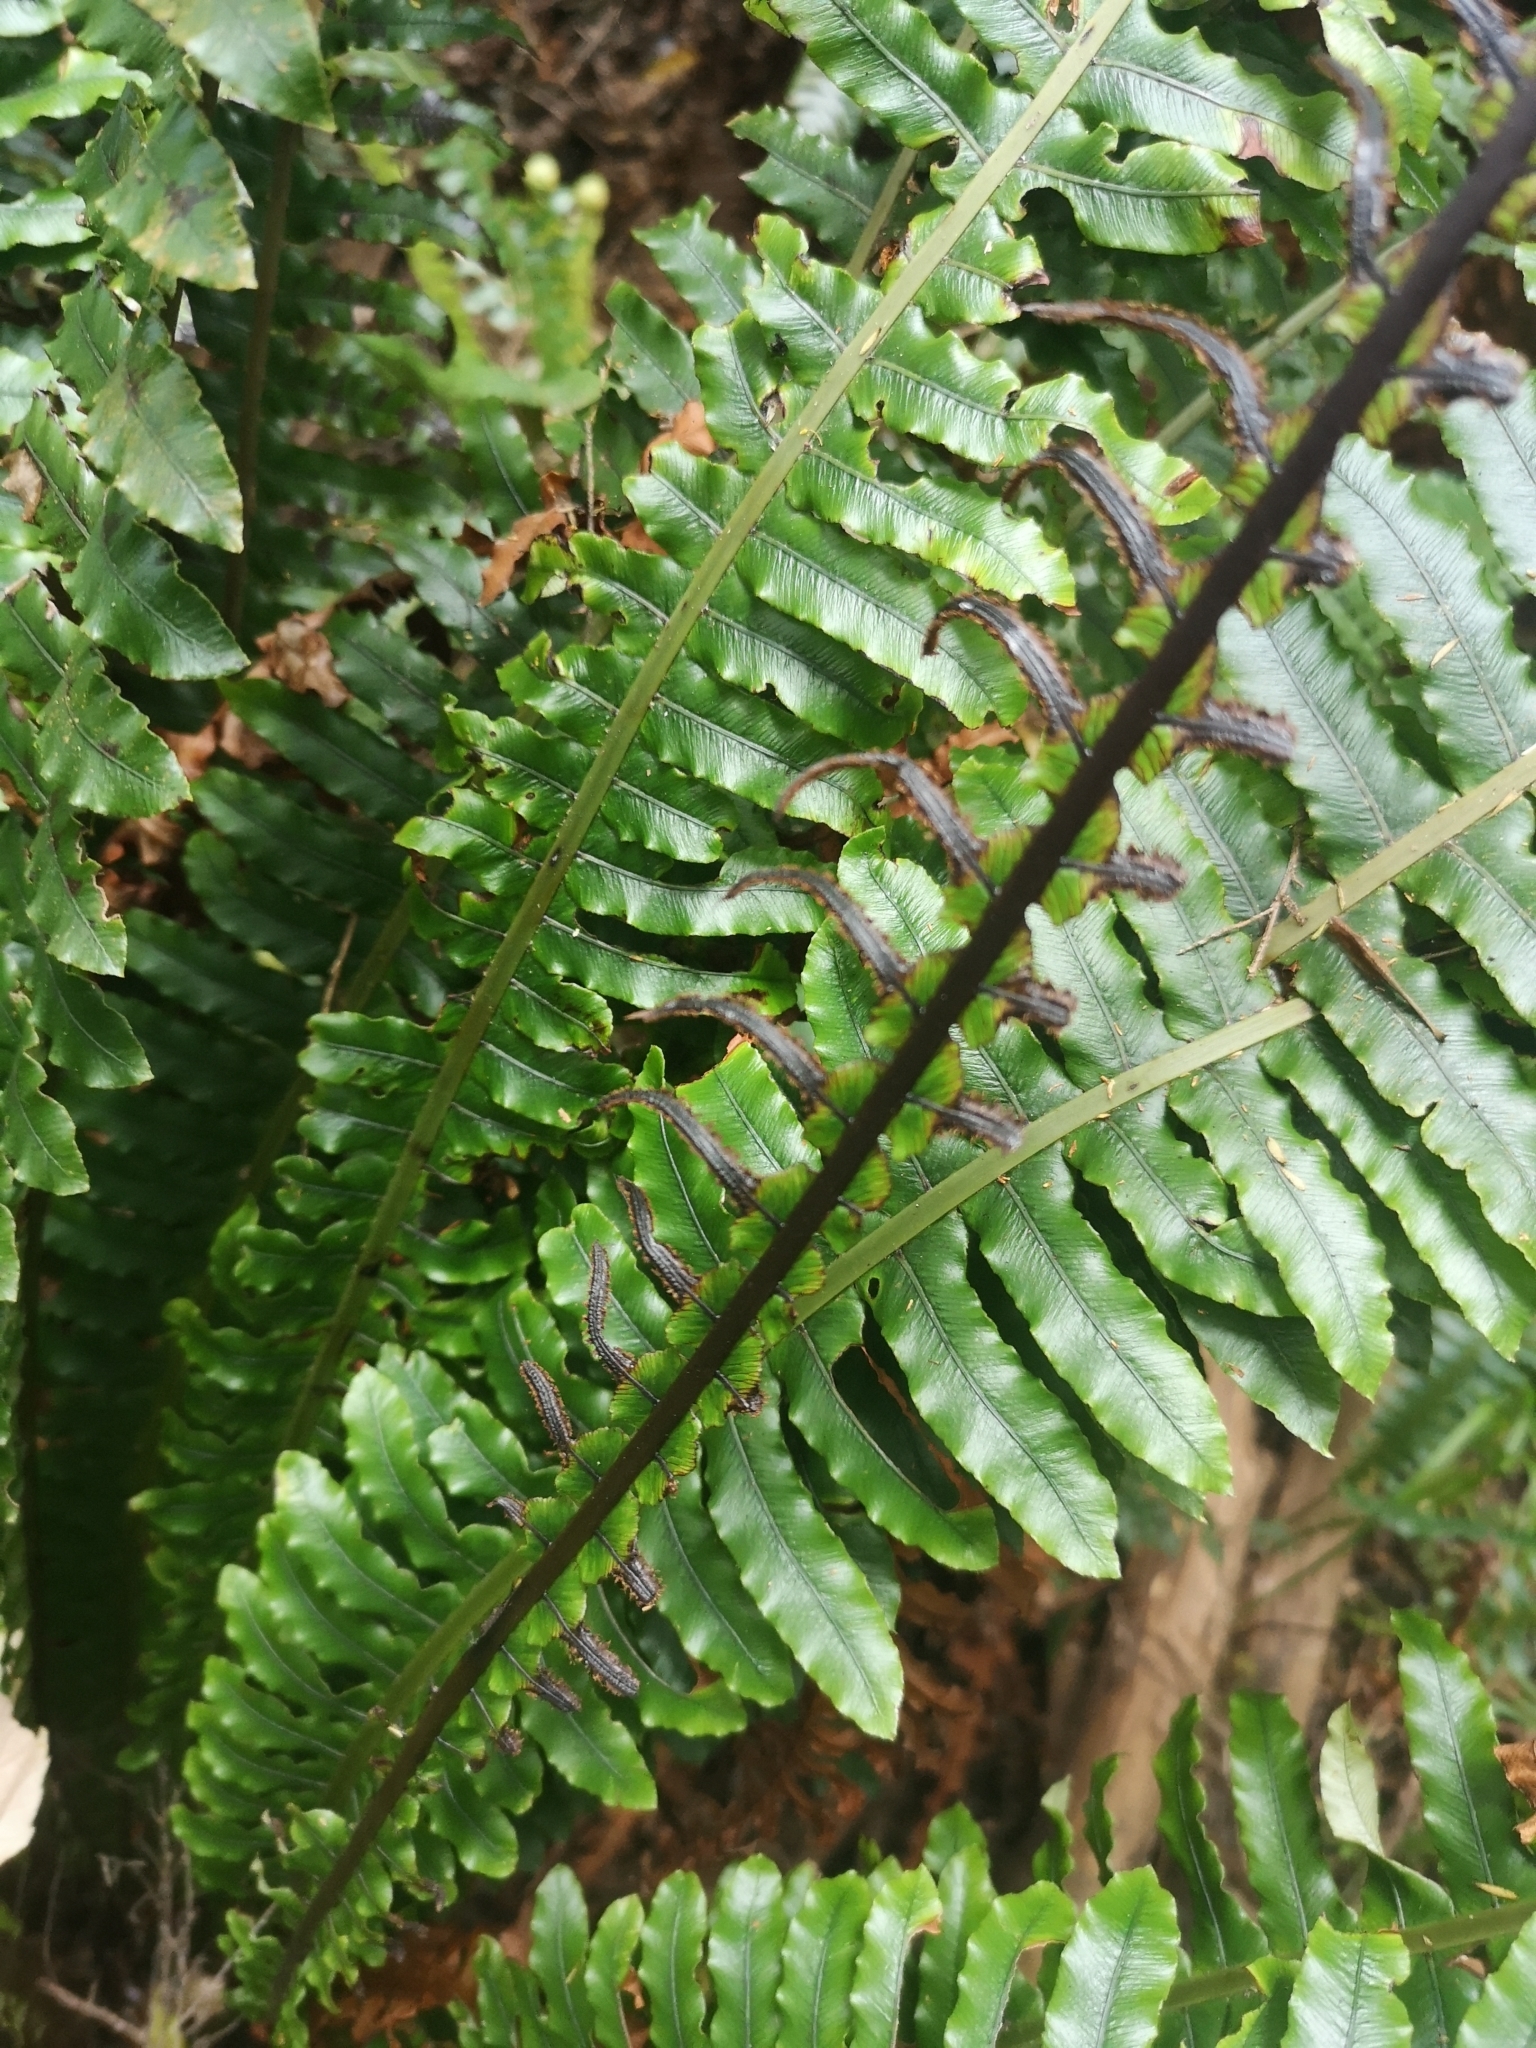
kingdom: Plantae
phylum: Tracheophyta
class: Polypodiopsida
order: Polypodiales
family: Blechnaceae
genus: Lomaria
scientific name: Lomaria discolor
